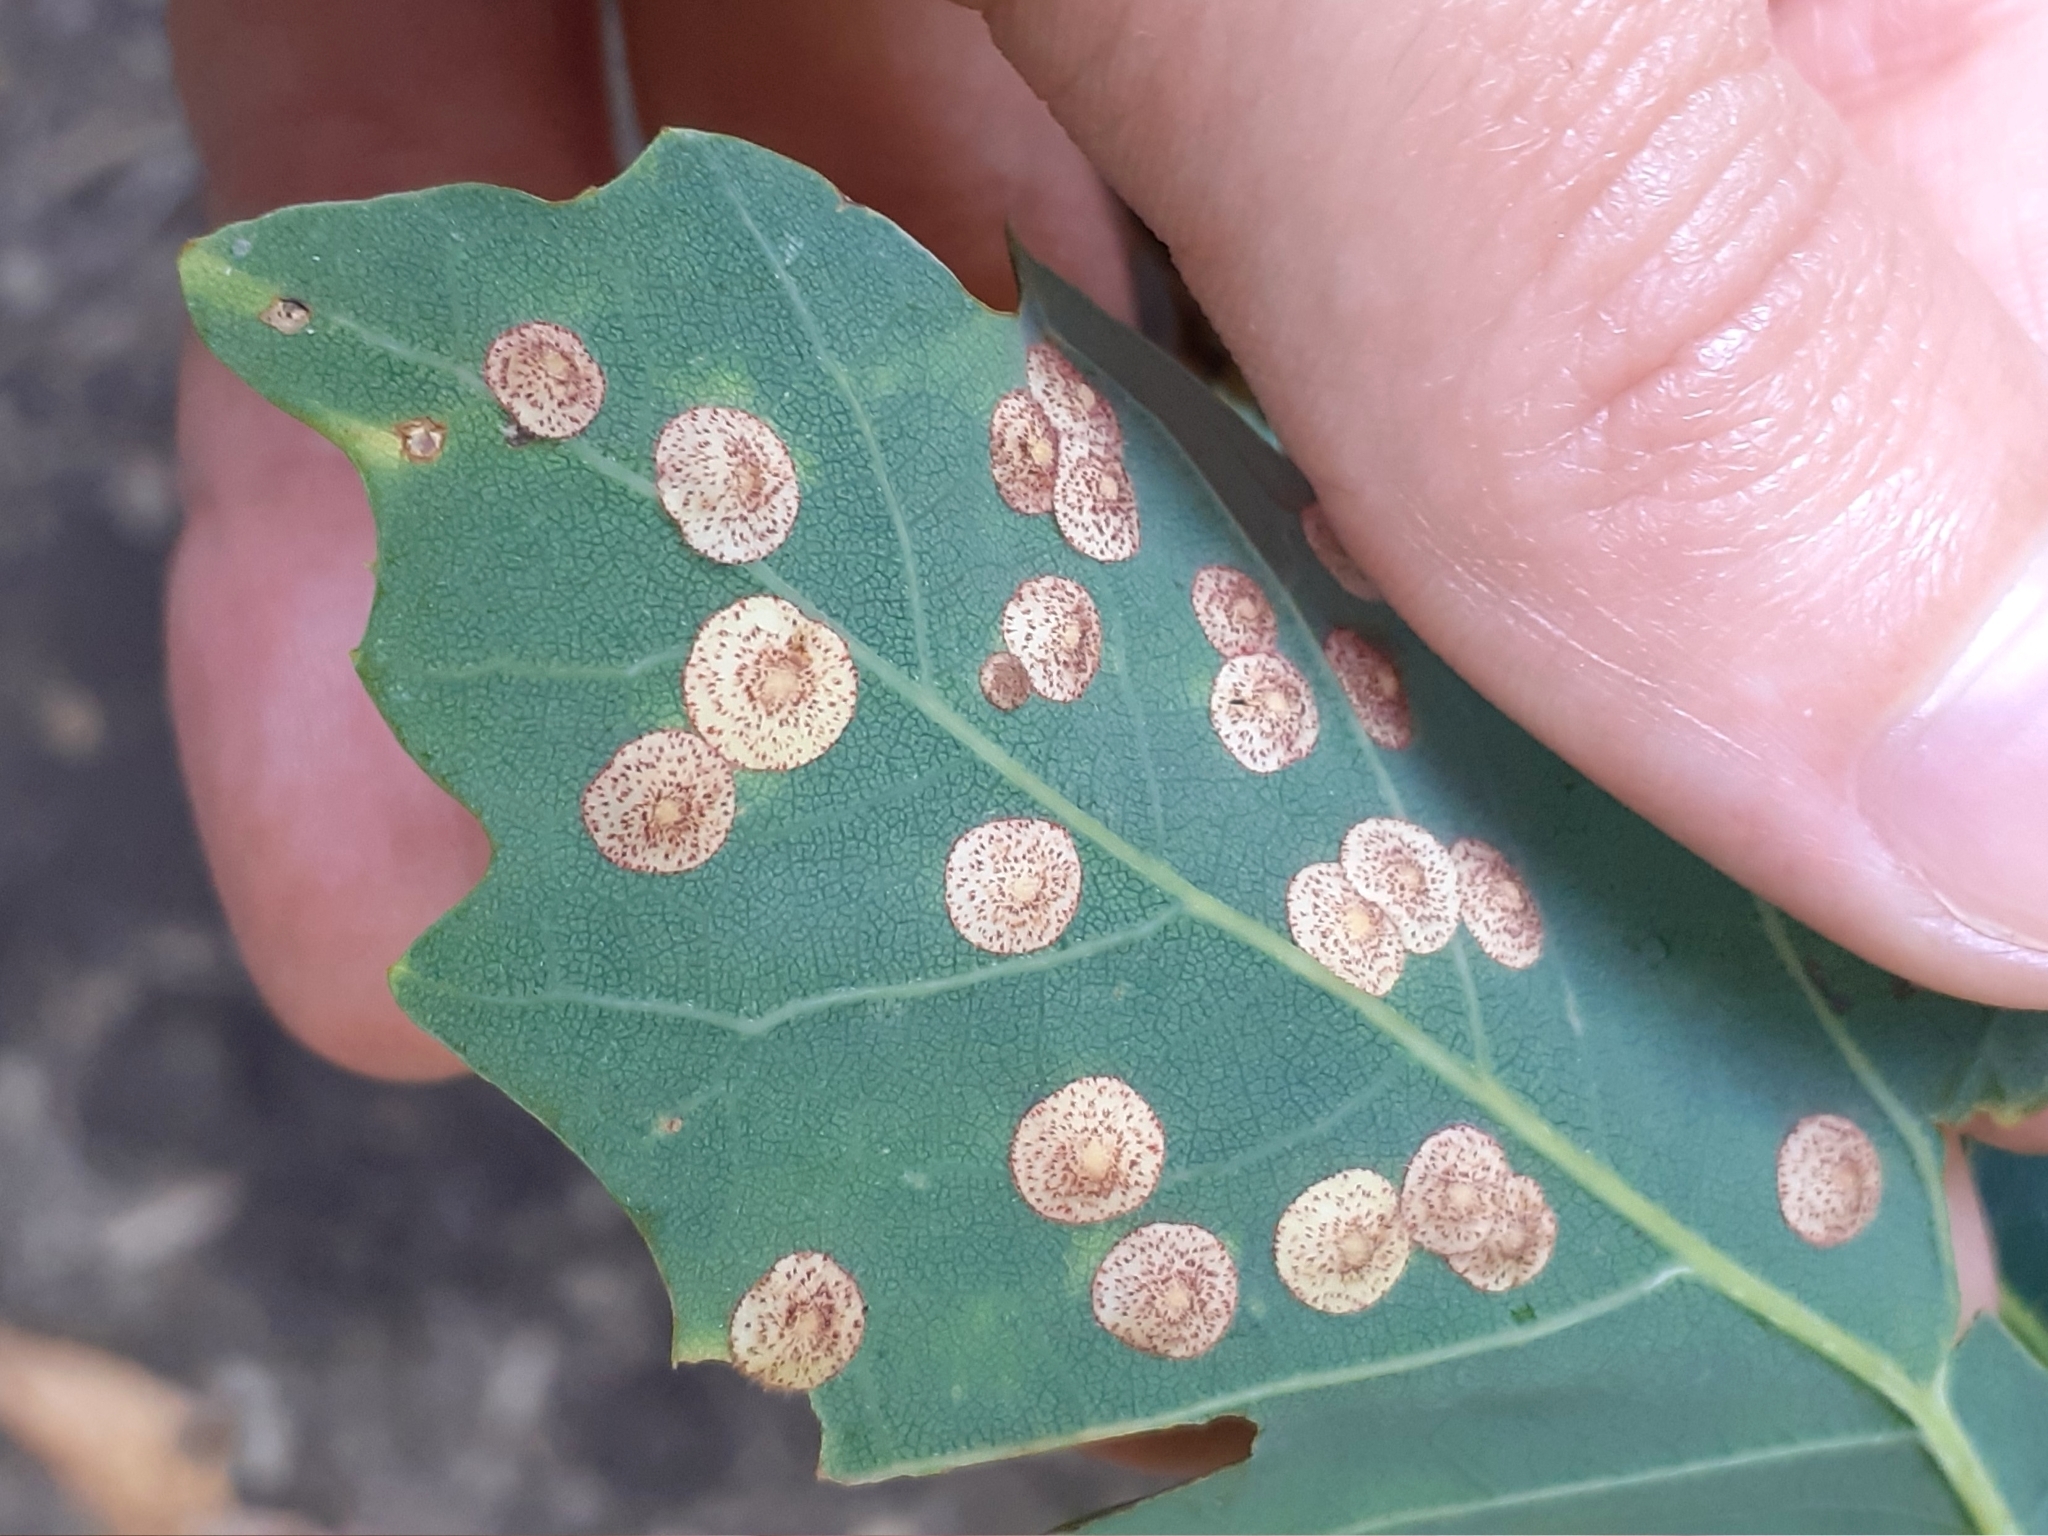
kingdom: Animalia
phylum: Arthropoda
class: Insecta
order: Hymenoptera
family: Cynipidae
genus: Neuroterus
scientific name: Neuroterus quercusbaccarum
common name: Common spangle gall
